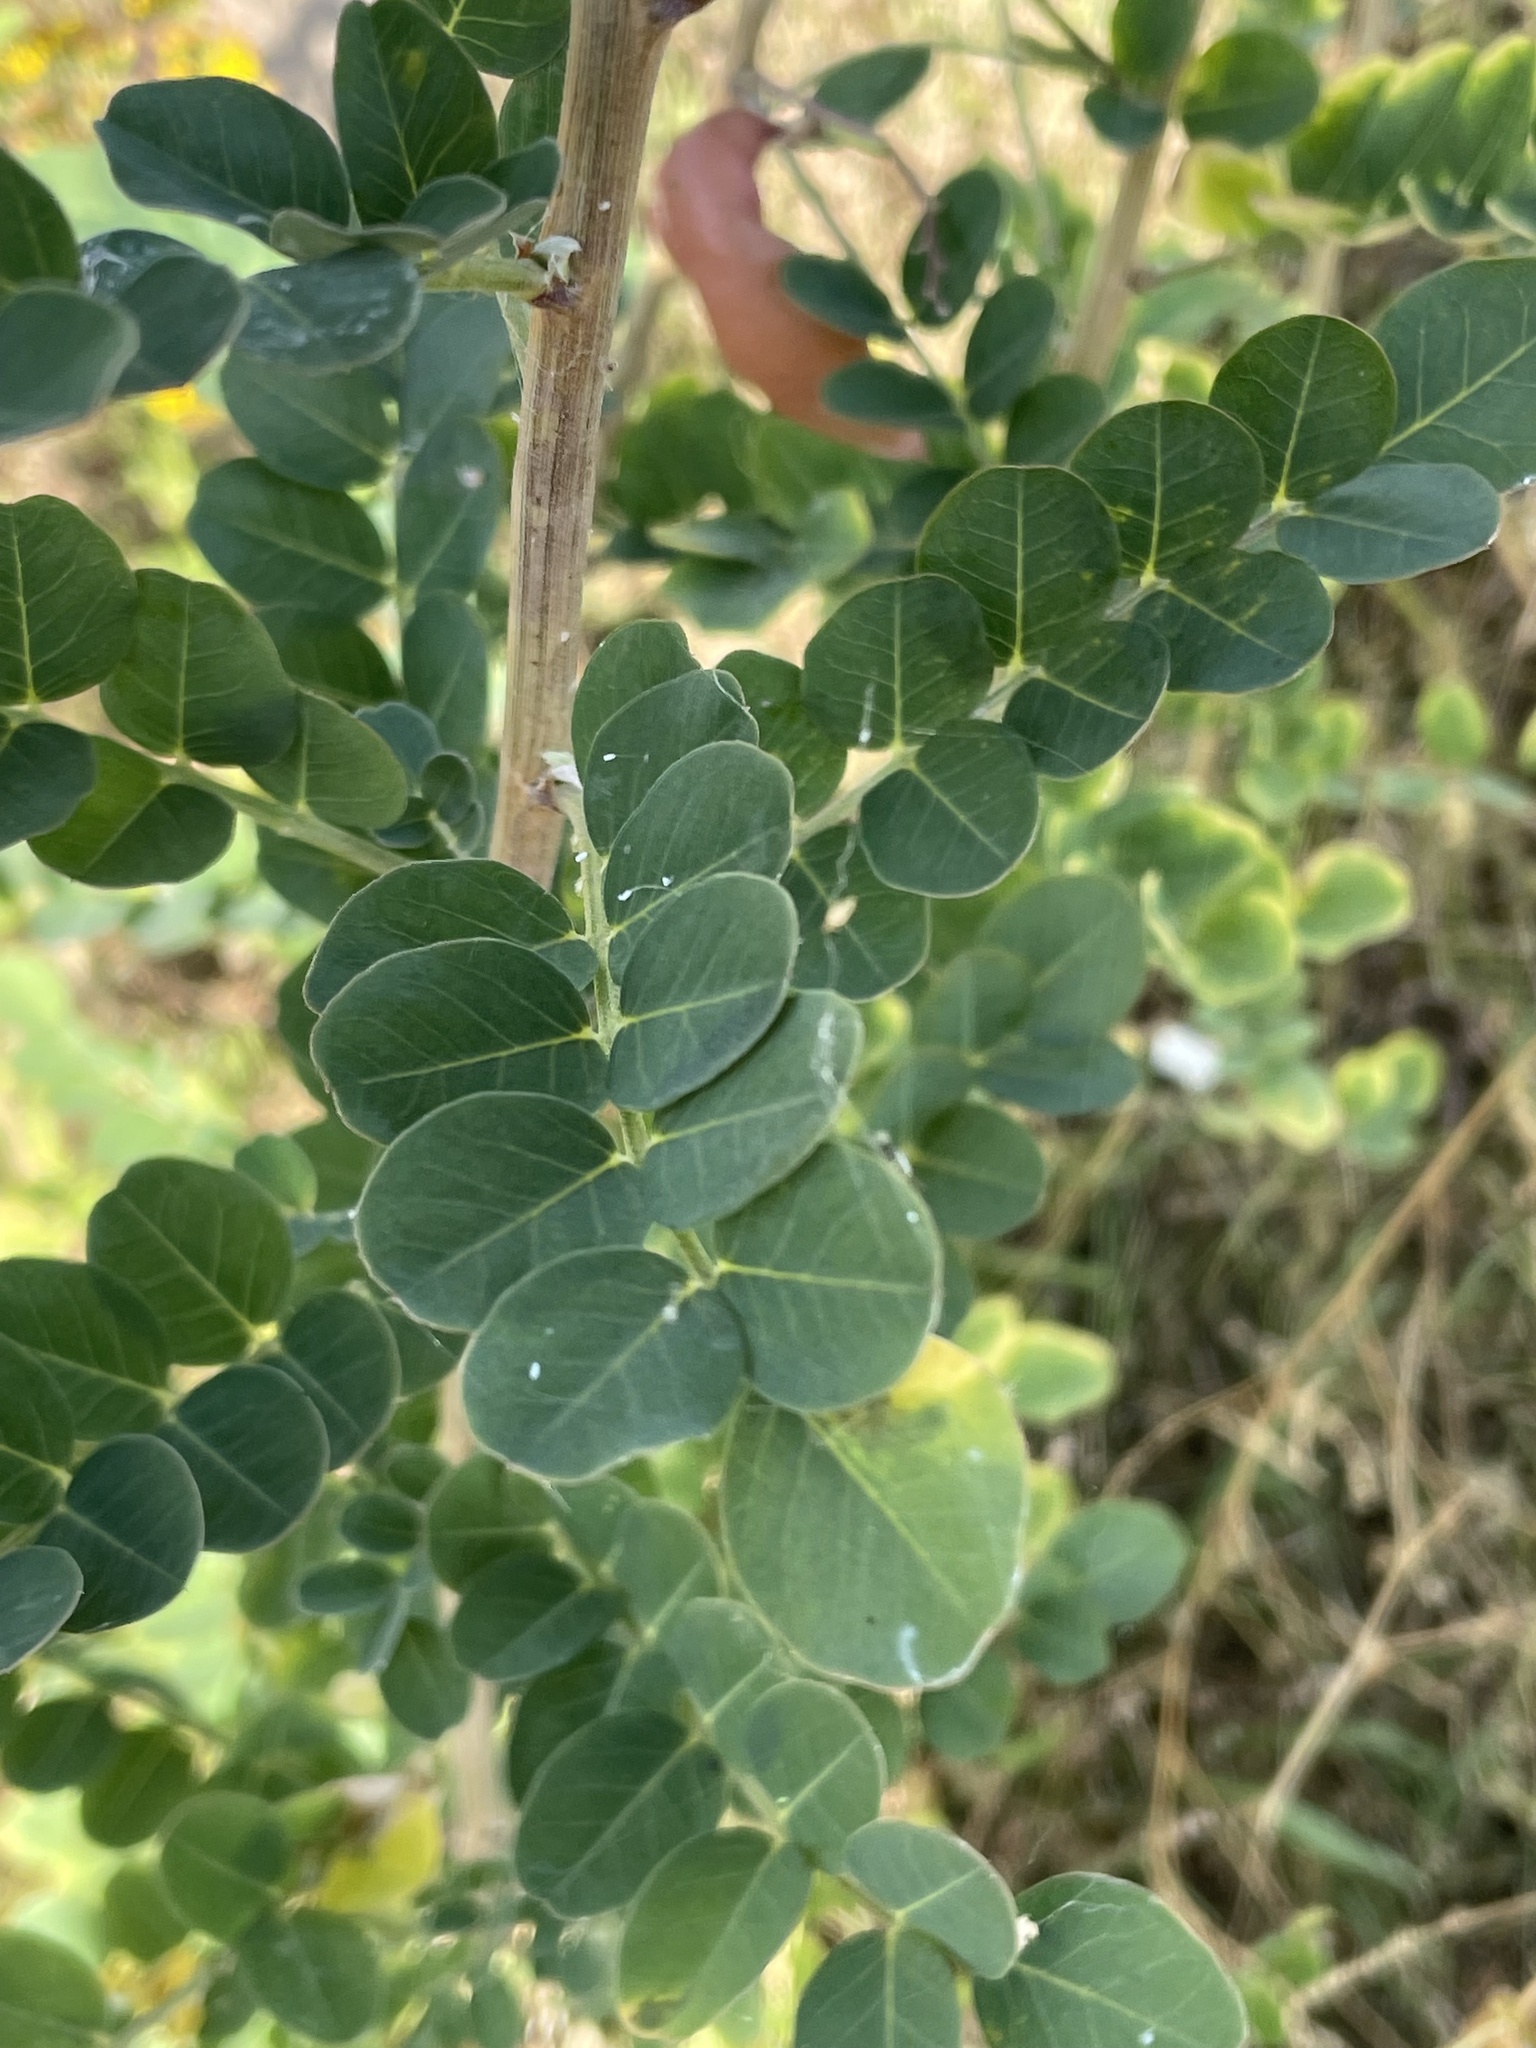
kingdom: Plantae
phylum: Tracheophyta
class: Magnoliopsida
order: Fabales
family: Fabaceae
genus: Colutea
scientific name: Colutea arborescens
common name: Bladder-senna
